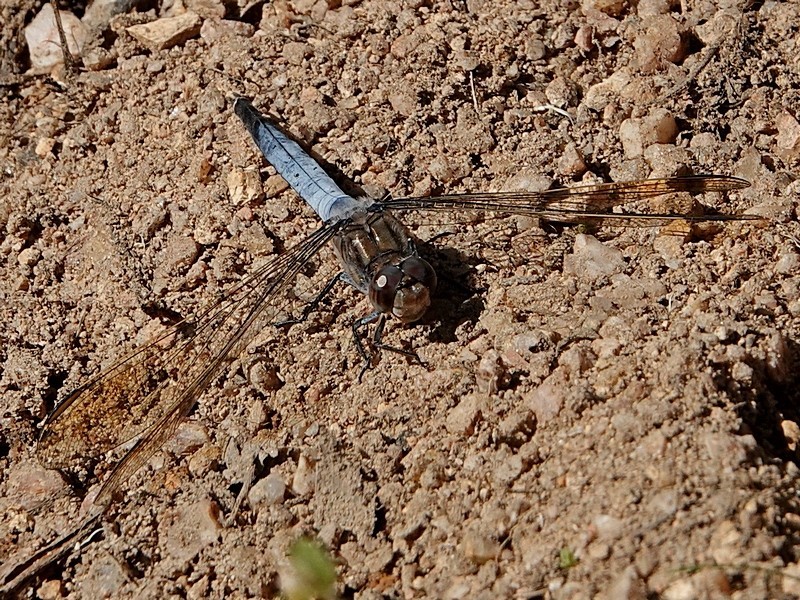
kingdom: Animalia
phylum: Arthropoda
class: Insecta
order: Odonata
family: Libellulidae
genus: Orthetrum
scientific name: Orthetrum caledonicum
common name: Blue skimmer
